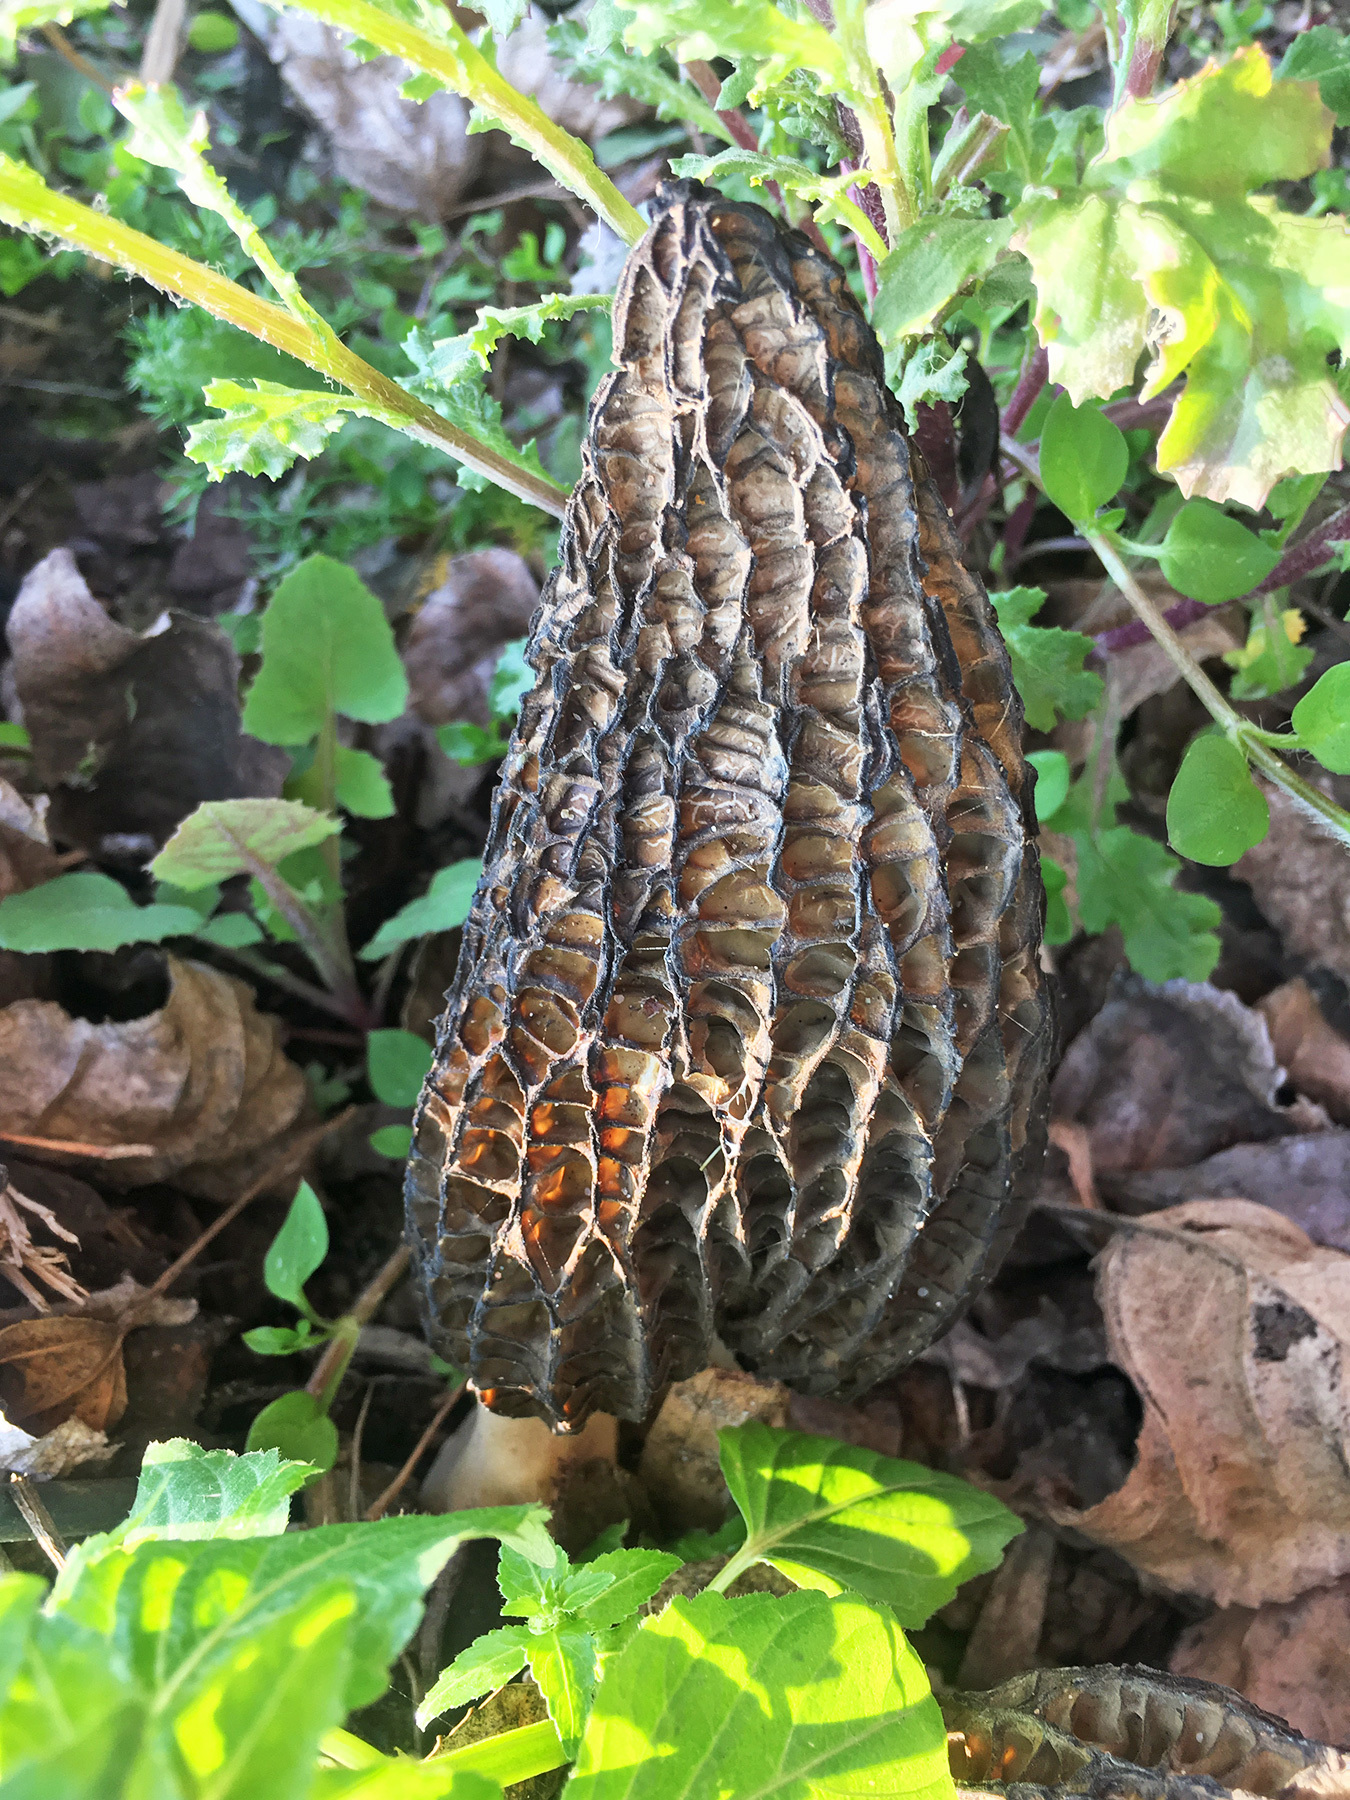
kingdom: Fungi
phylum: Ascomycota
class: Pezizomycetes
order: Pezizales
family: Morchellaceae
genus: Morchella
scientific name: Morchella
